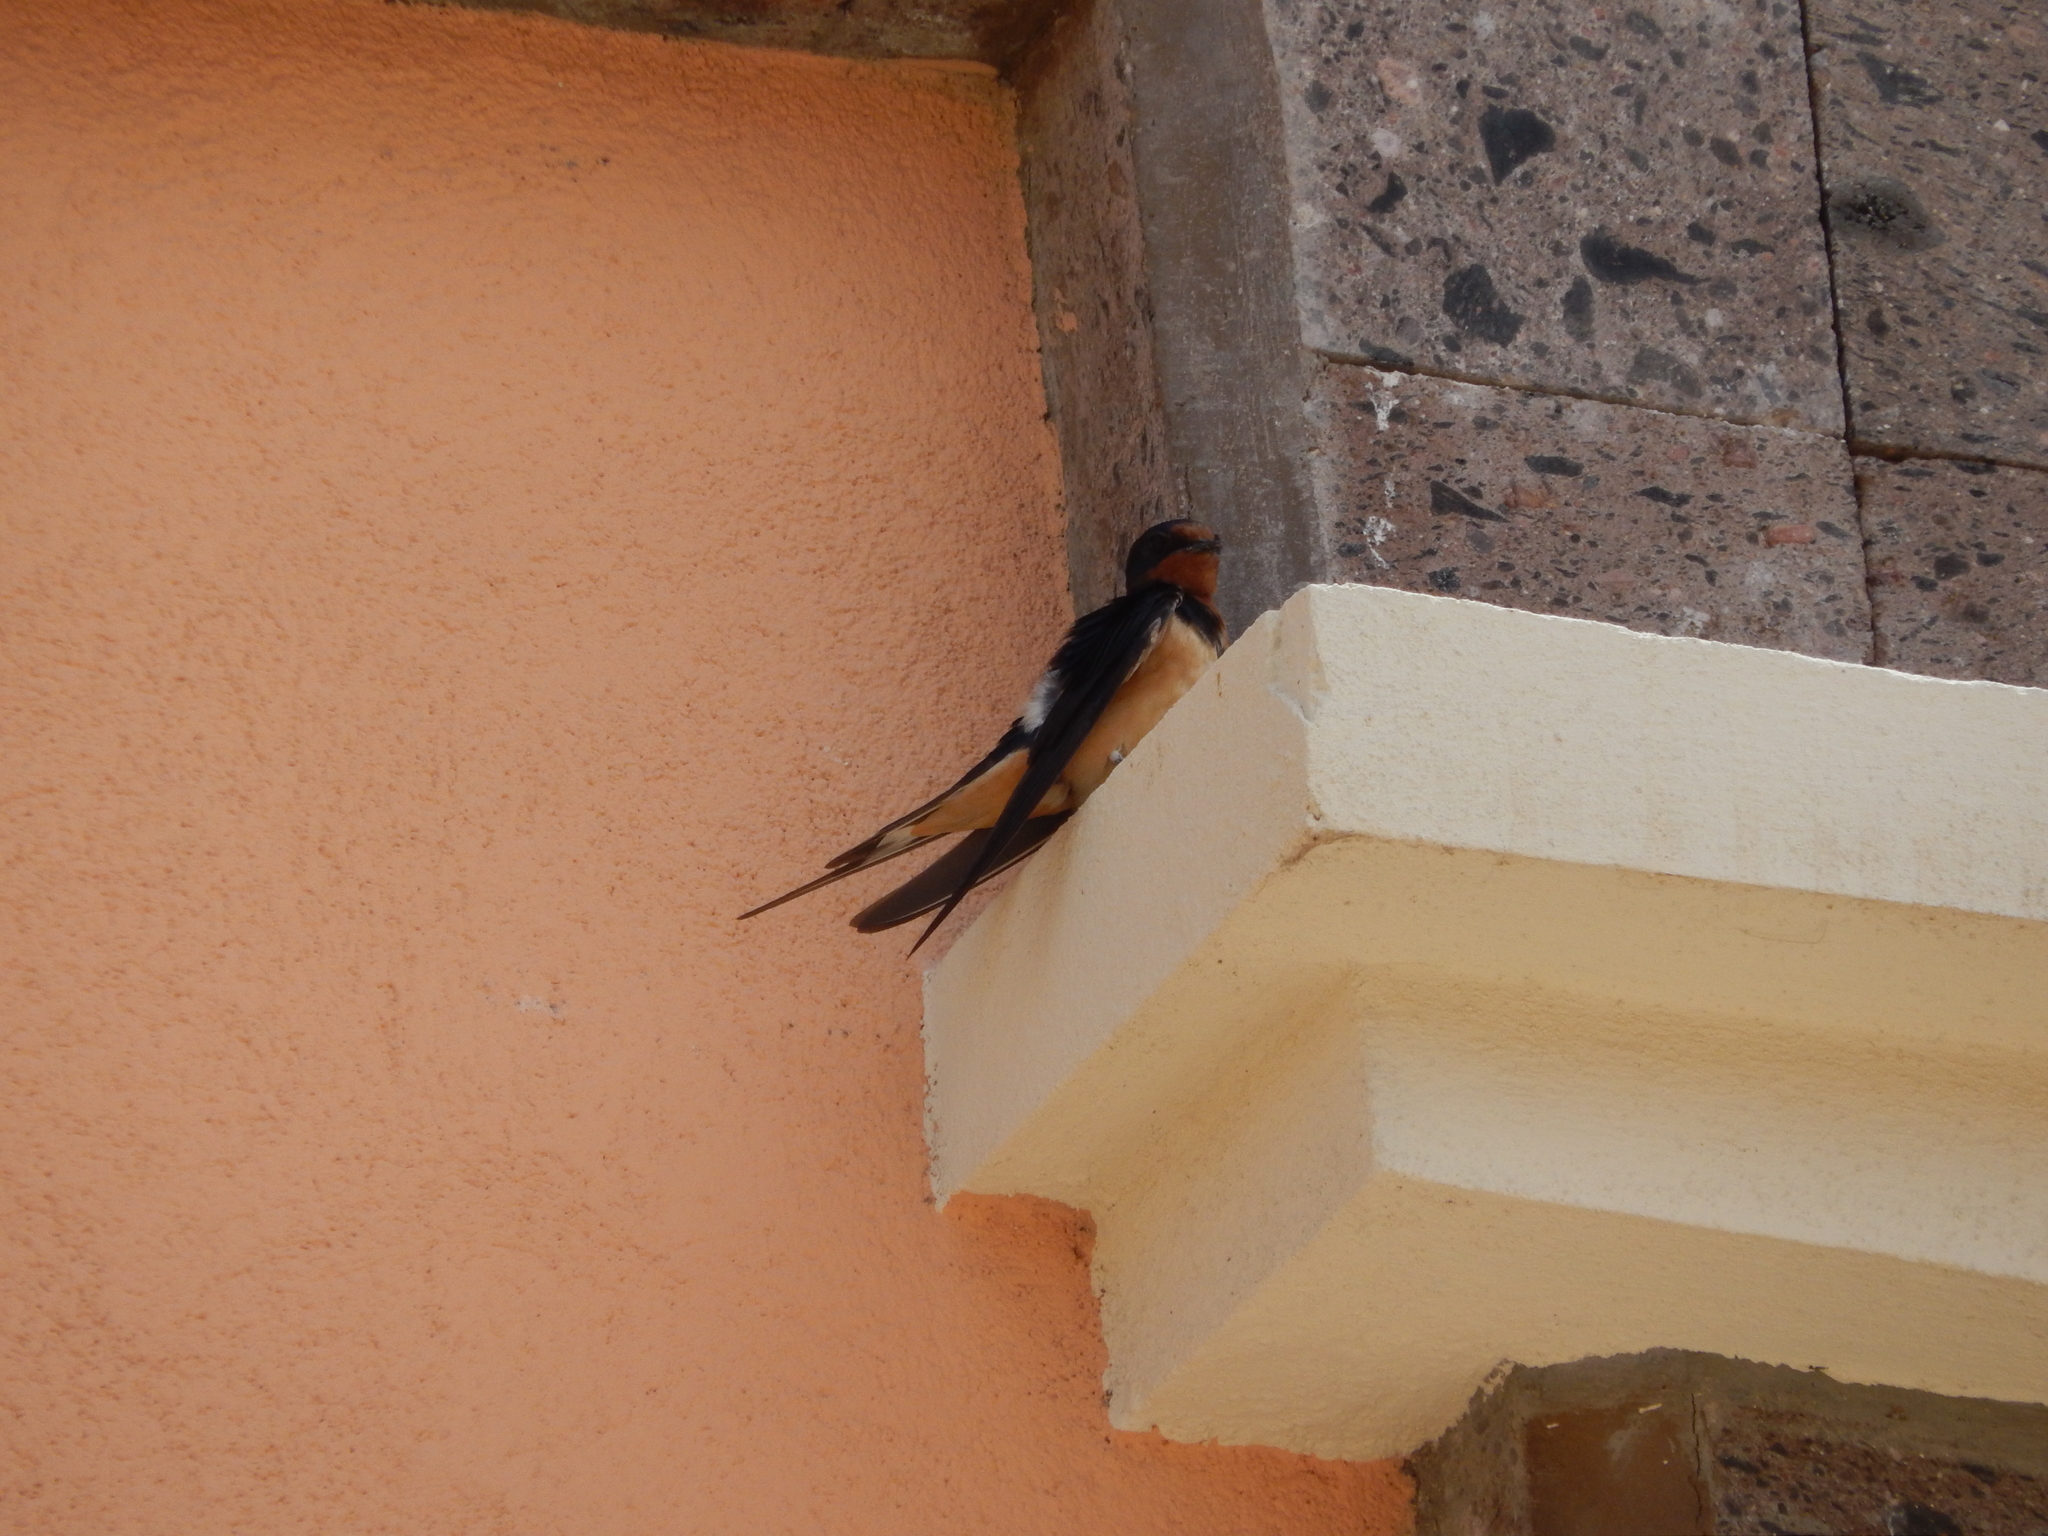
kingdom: Animalia
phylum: Chordata
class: Aves
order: Passeriformes
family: Hirundinidae
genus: Hirundo
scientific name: Hirundo rustica
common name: Barn swallow
